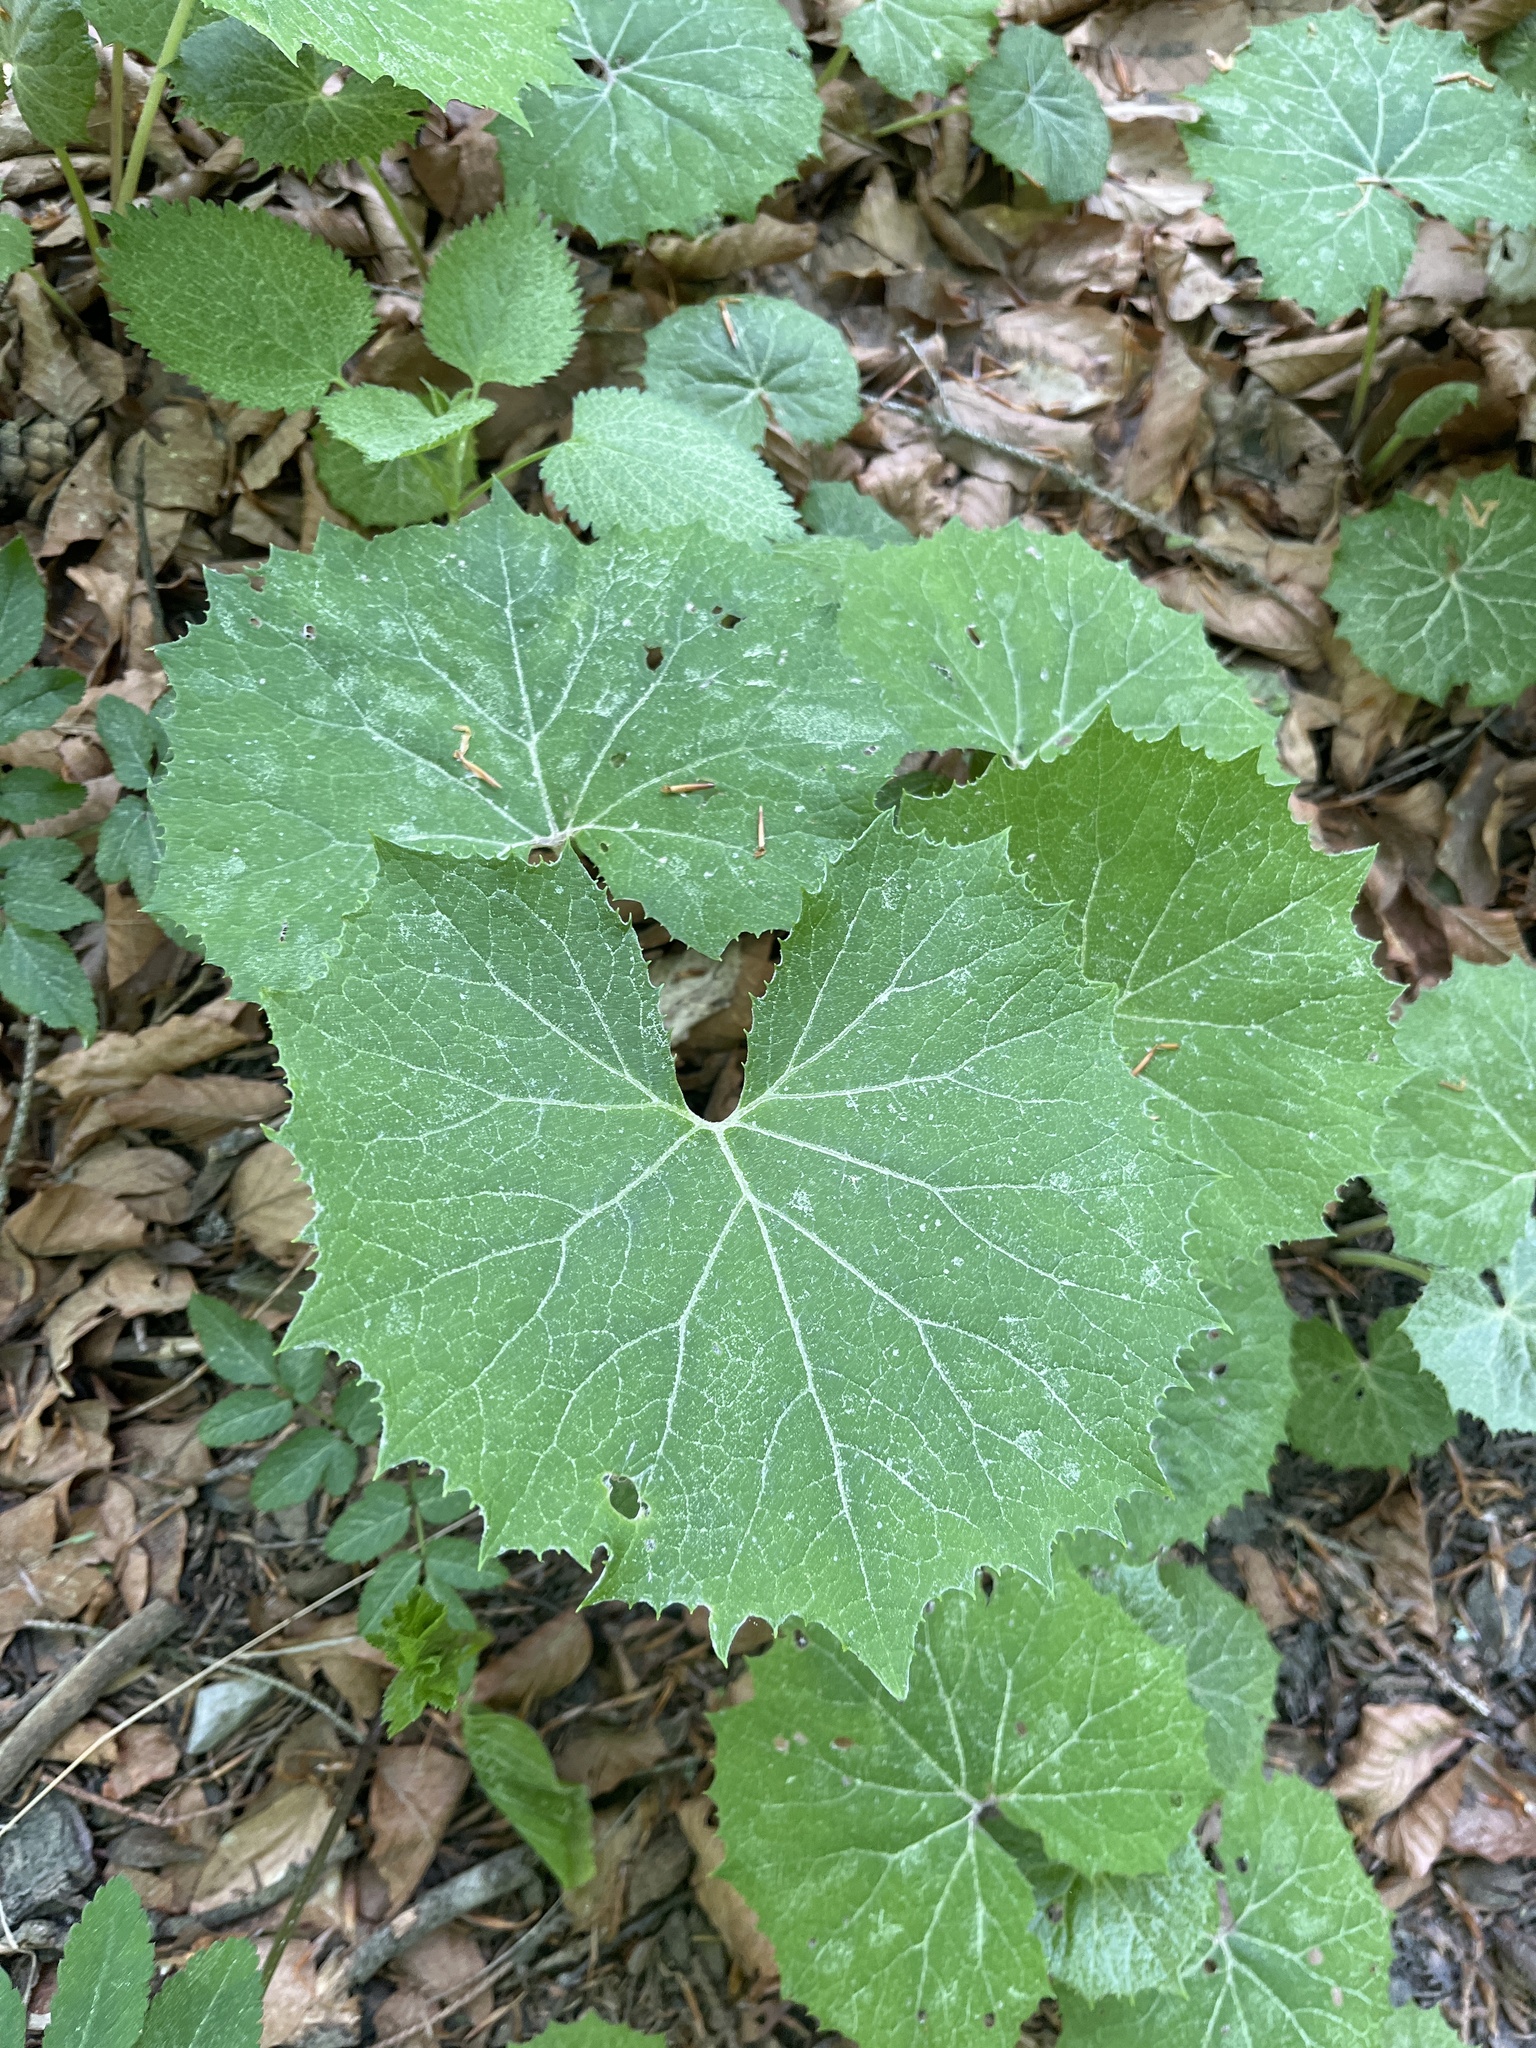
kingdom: Plantae
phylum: Tracheophyta
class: Magnoliopsida
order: Asterales
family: Asteraceae
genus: Petasites
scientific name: Petasites albus
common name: White butterbur
